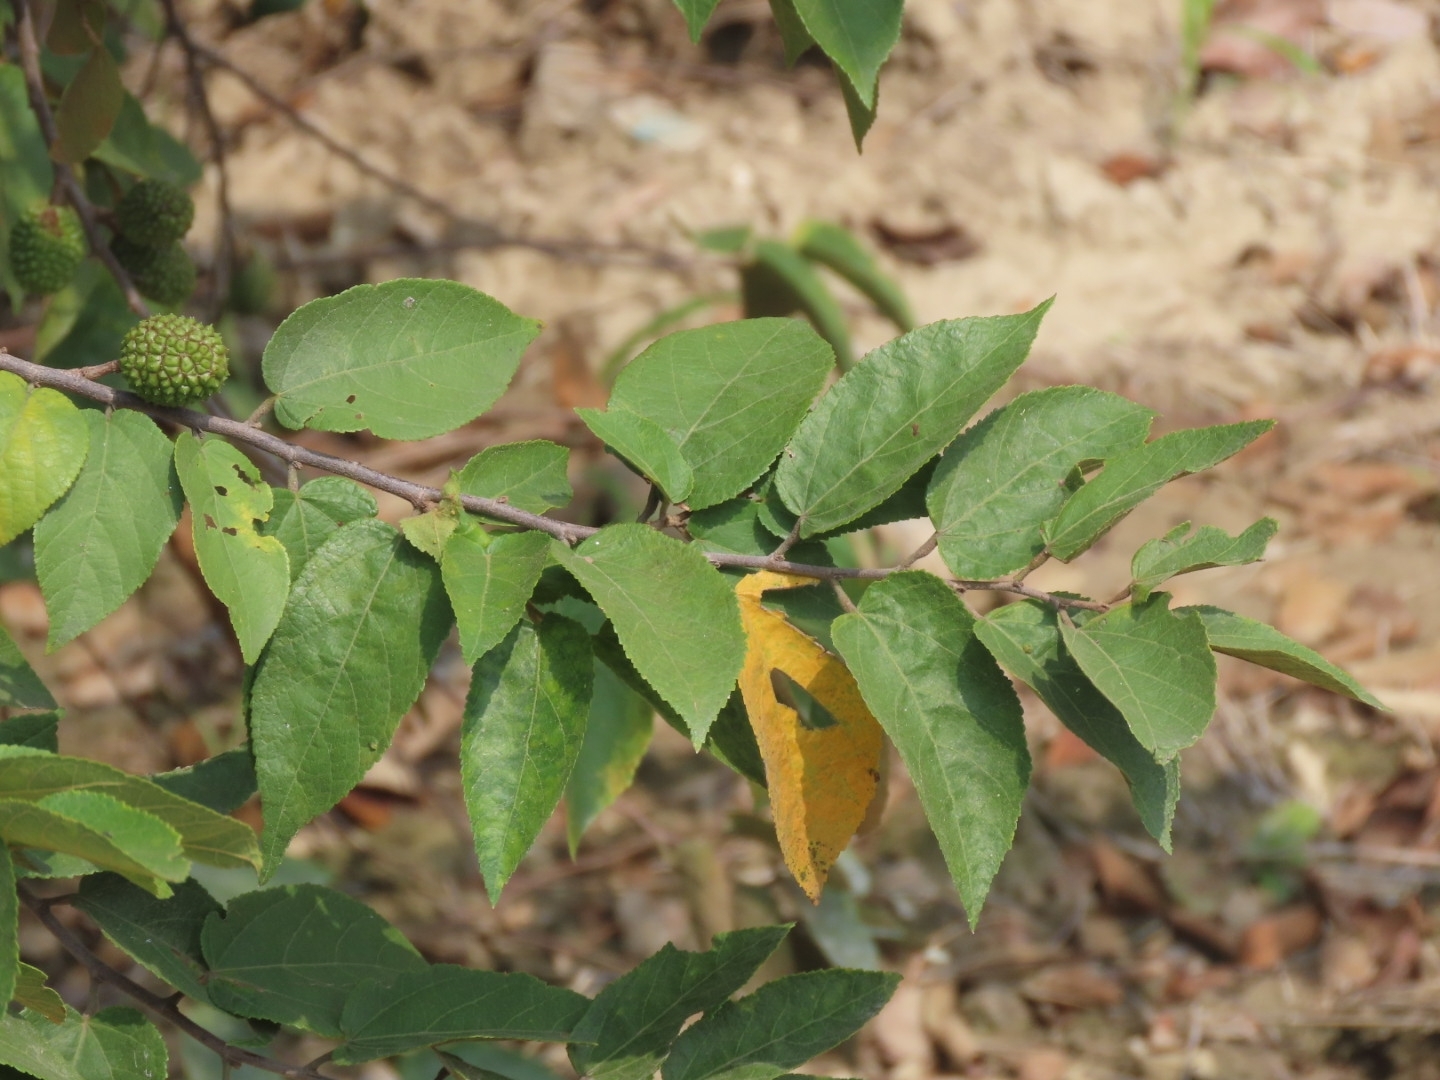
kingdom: Plantae
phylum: Tracheophyta
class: Magnoliopsida
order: Malvales
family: Malvaceae
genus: Guazuma
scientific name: Guazuma ulmifolia
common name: Bastard-cedar
